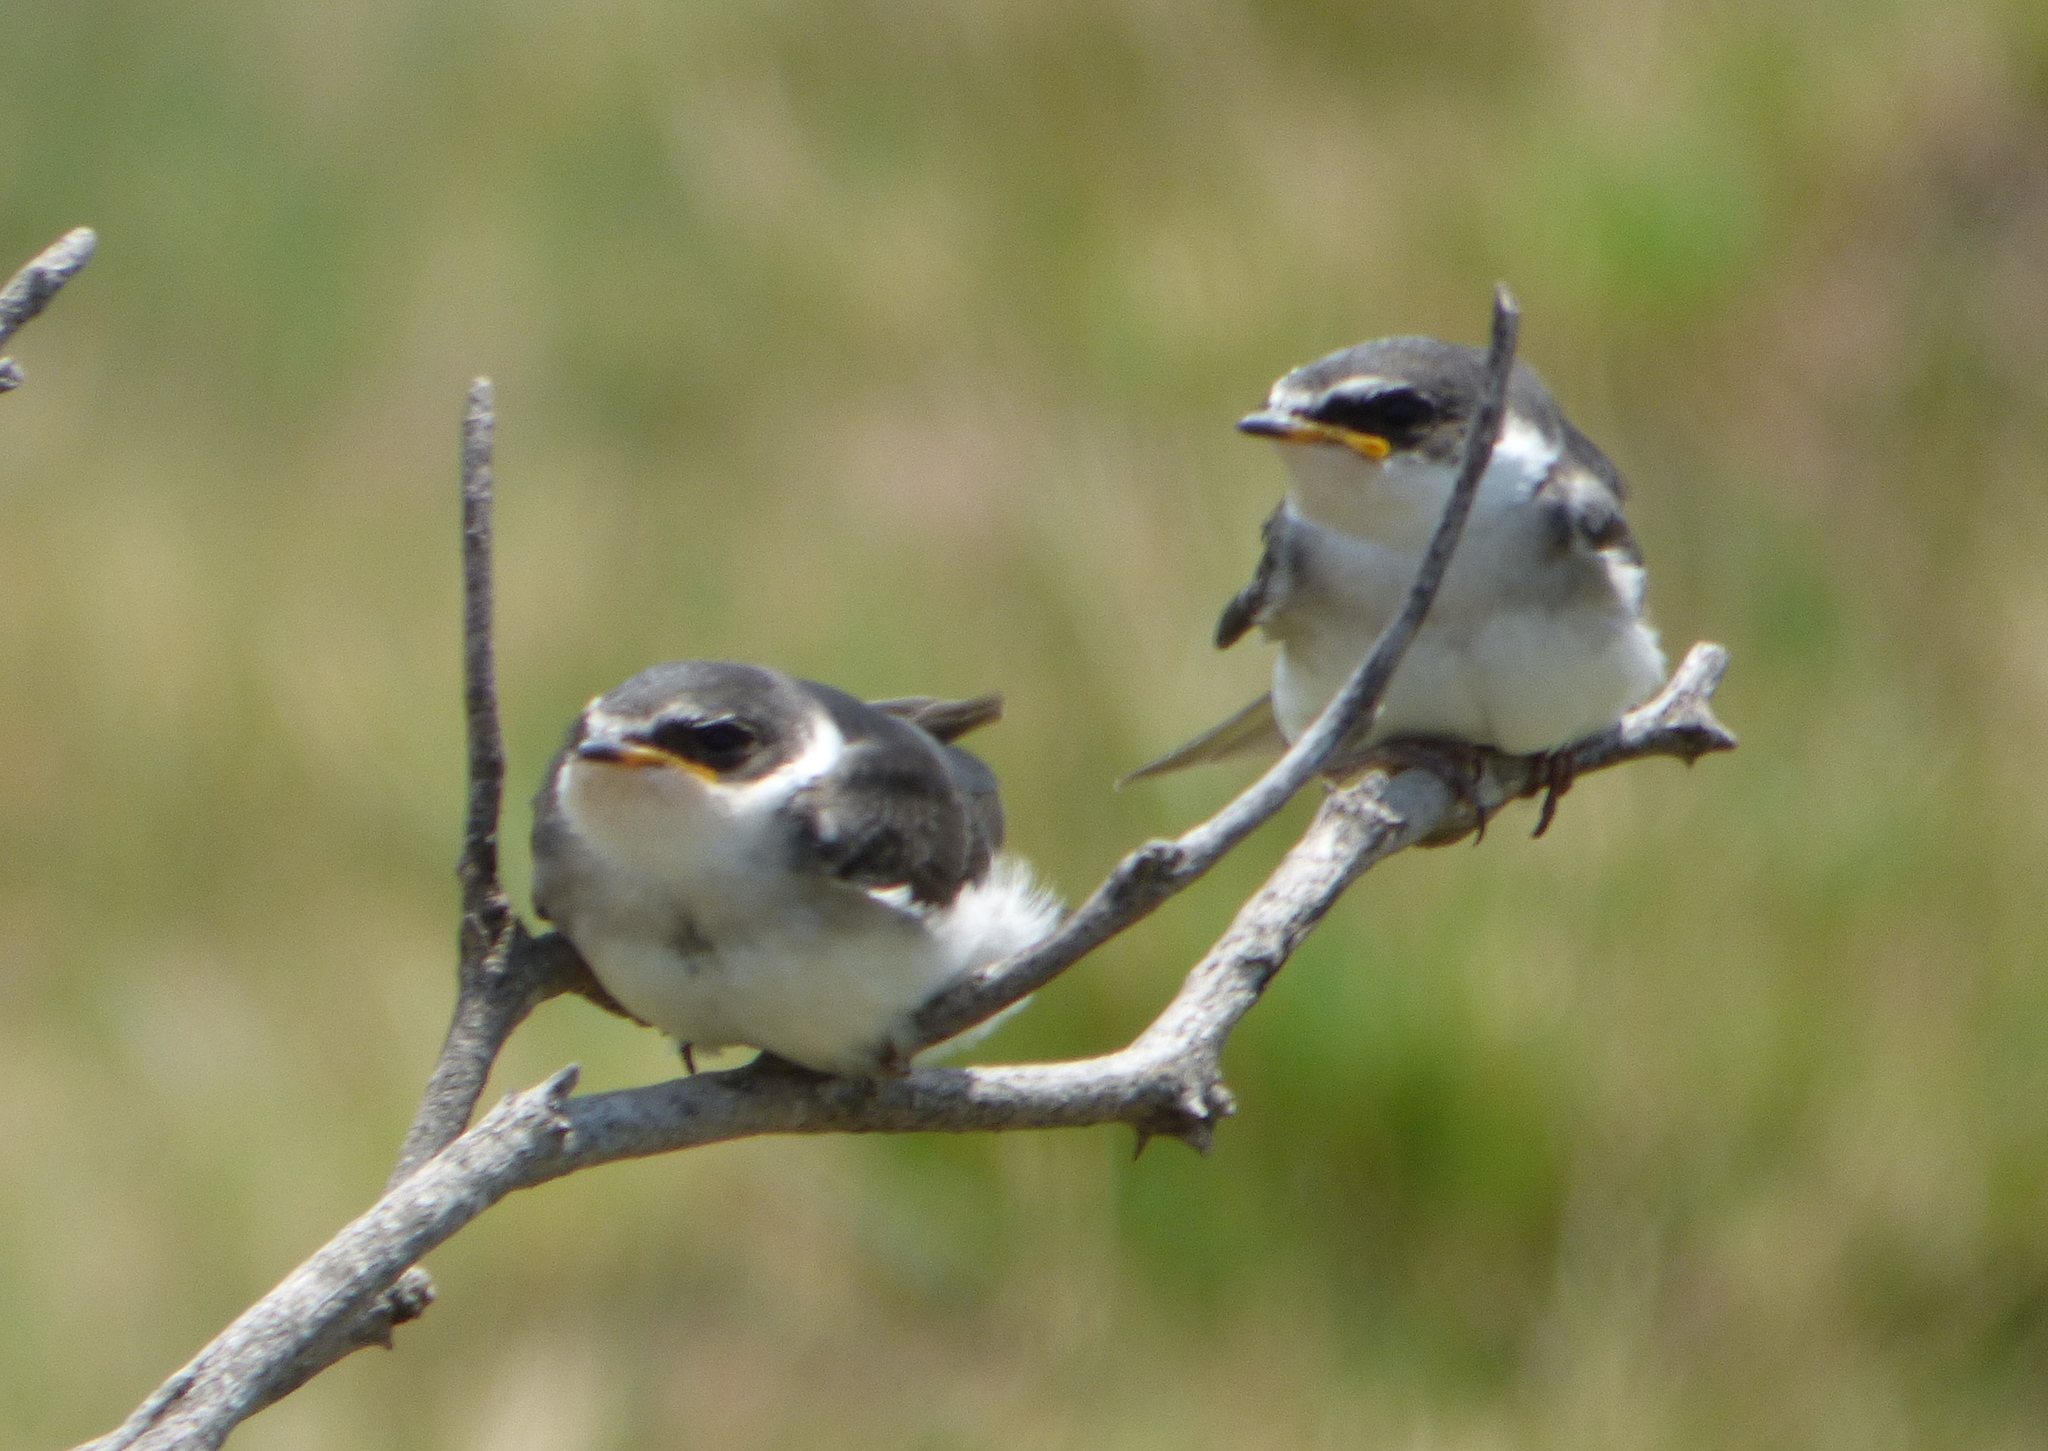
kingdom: Animalia
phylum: Chordata
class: Aves
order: Passeriformes
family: Hirundinidae
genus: Tachycineta
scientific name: Tachycineta leucorrhoa
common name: White-rumped swallow
